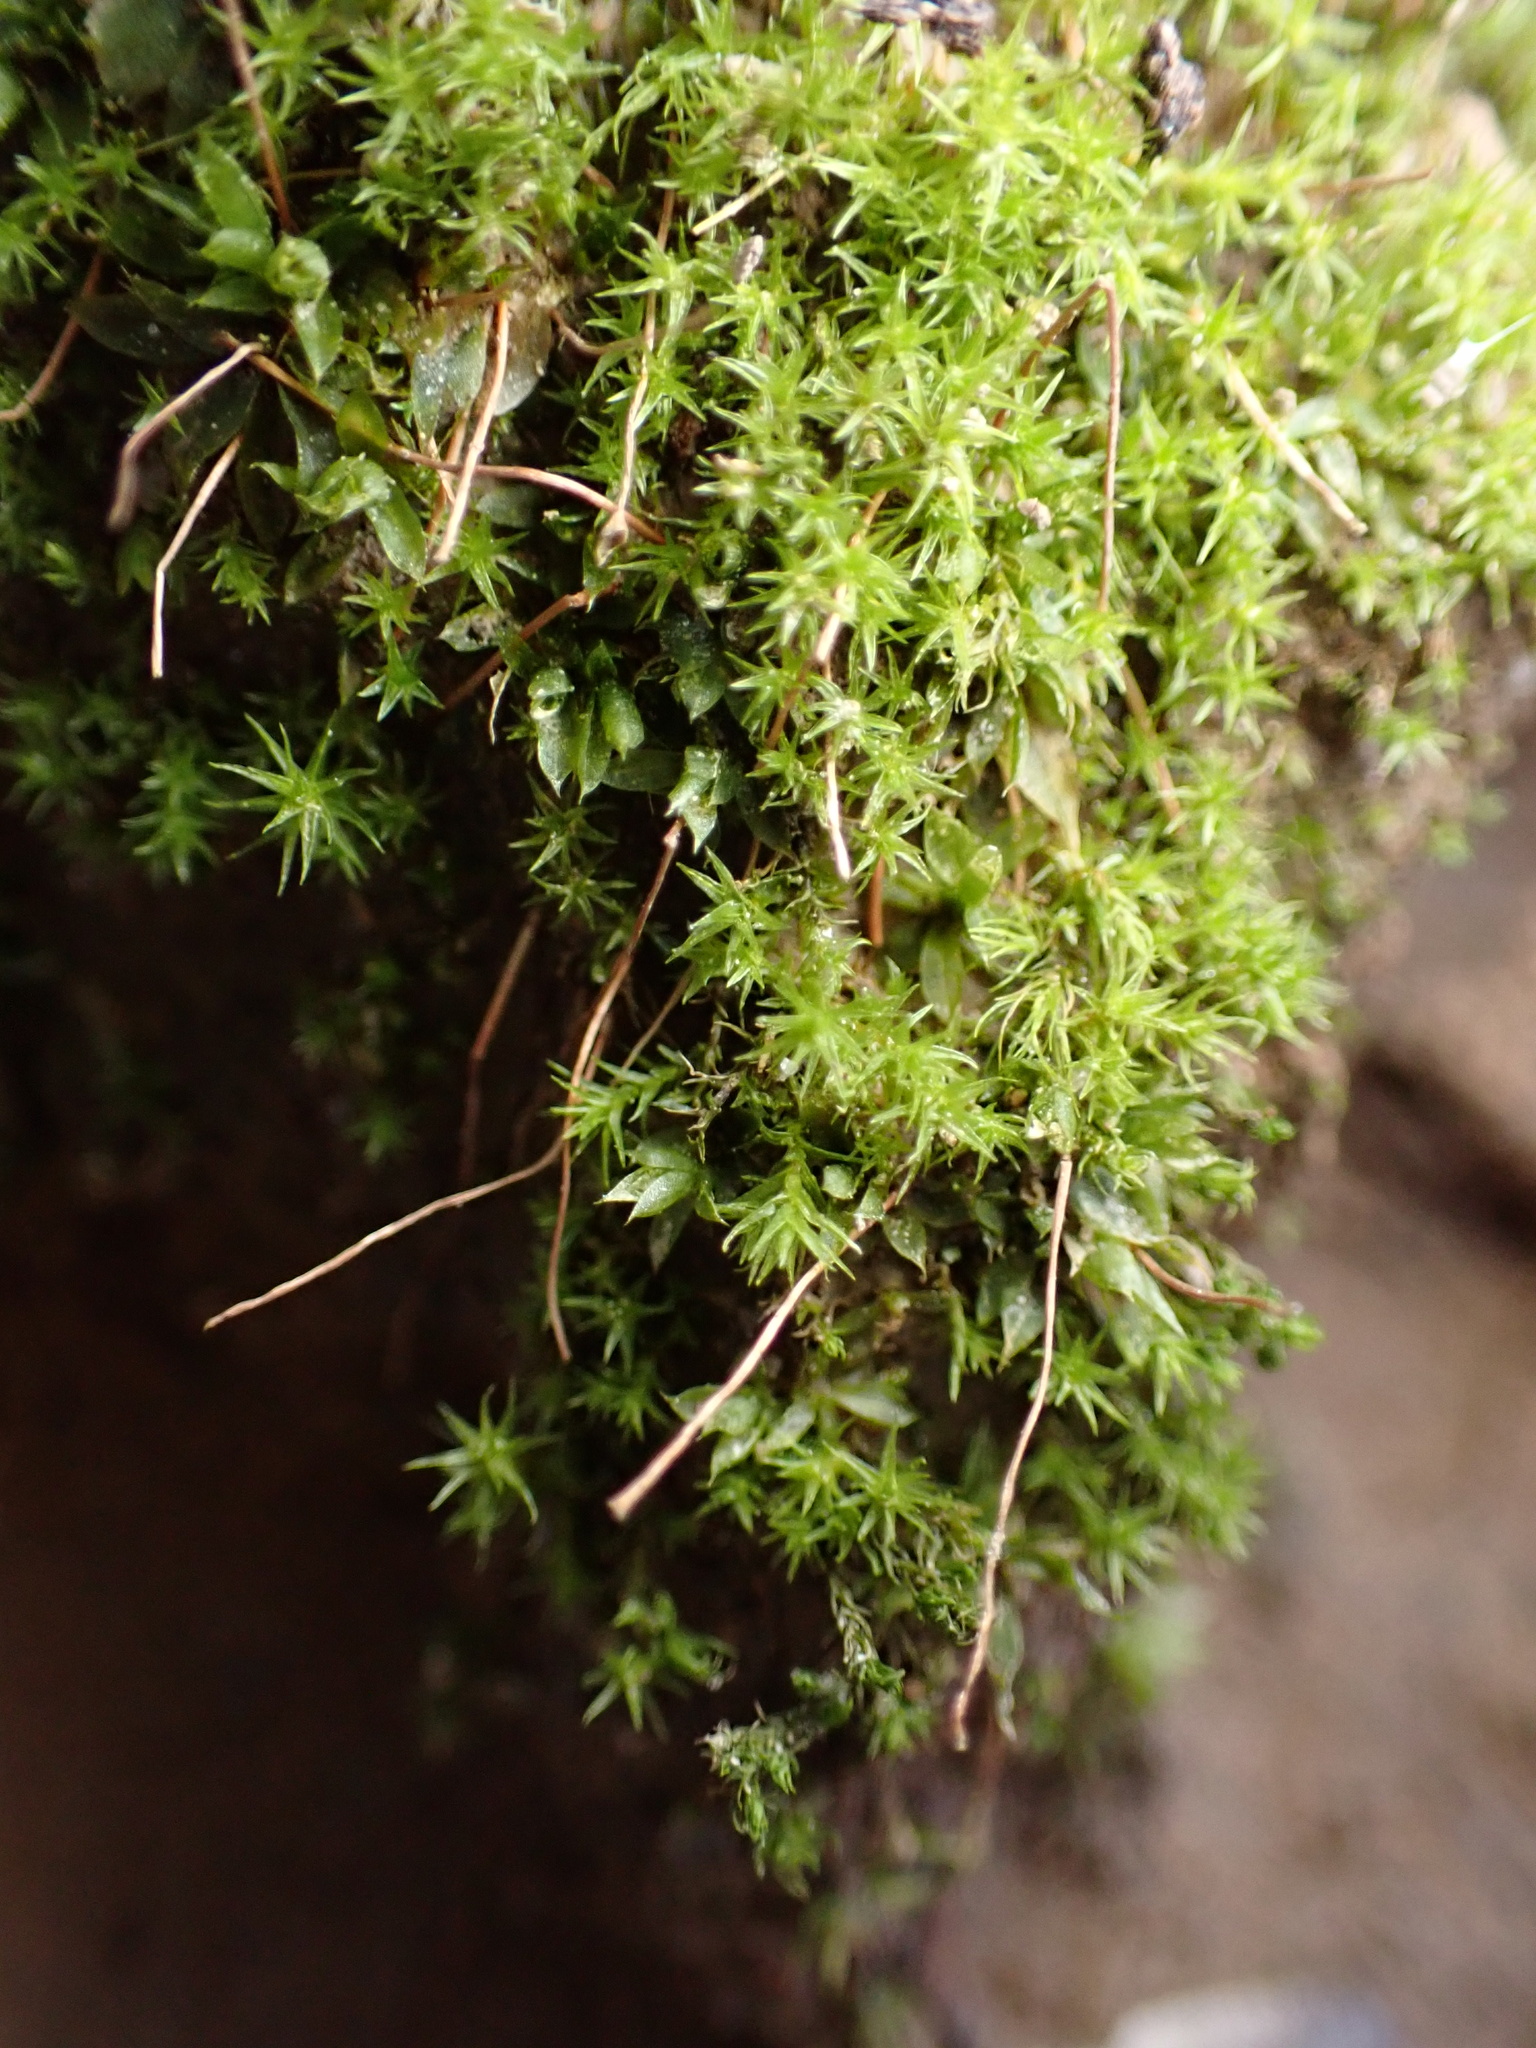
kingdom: Plantae
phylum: Bryophyta
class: Polytrichopsida
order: Polytrichales
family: Polytrichaceae
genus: Atrichum
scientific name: Atrichum angustatum
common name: Lesser smoothcap
